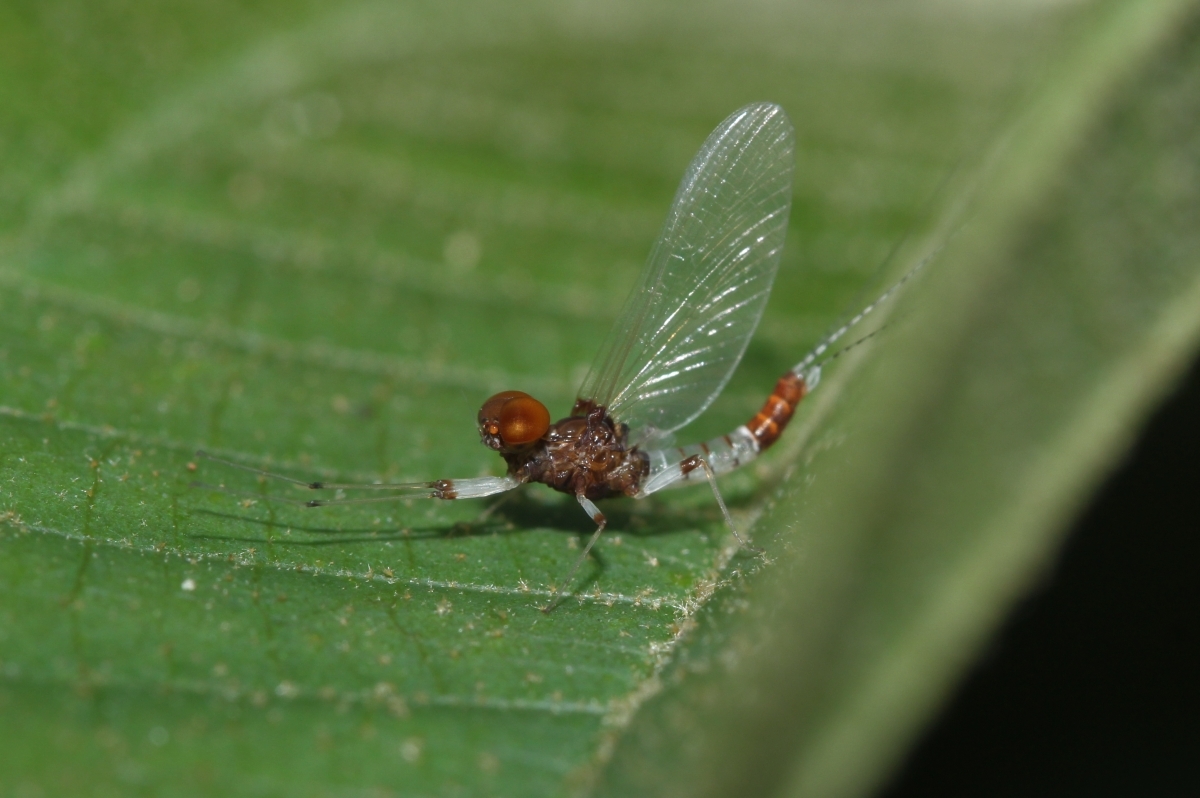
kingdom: Animalia
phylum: Arthropoda
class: Insecta
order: Ephemeroptera
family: Leptophlebiidae
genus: Thraulodes
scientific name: Thraulodes
